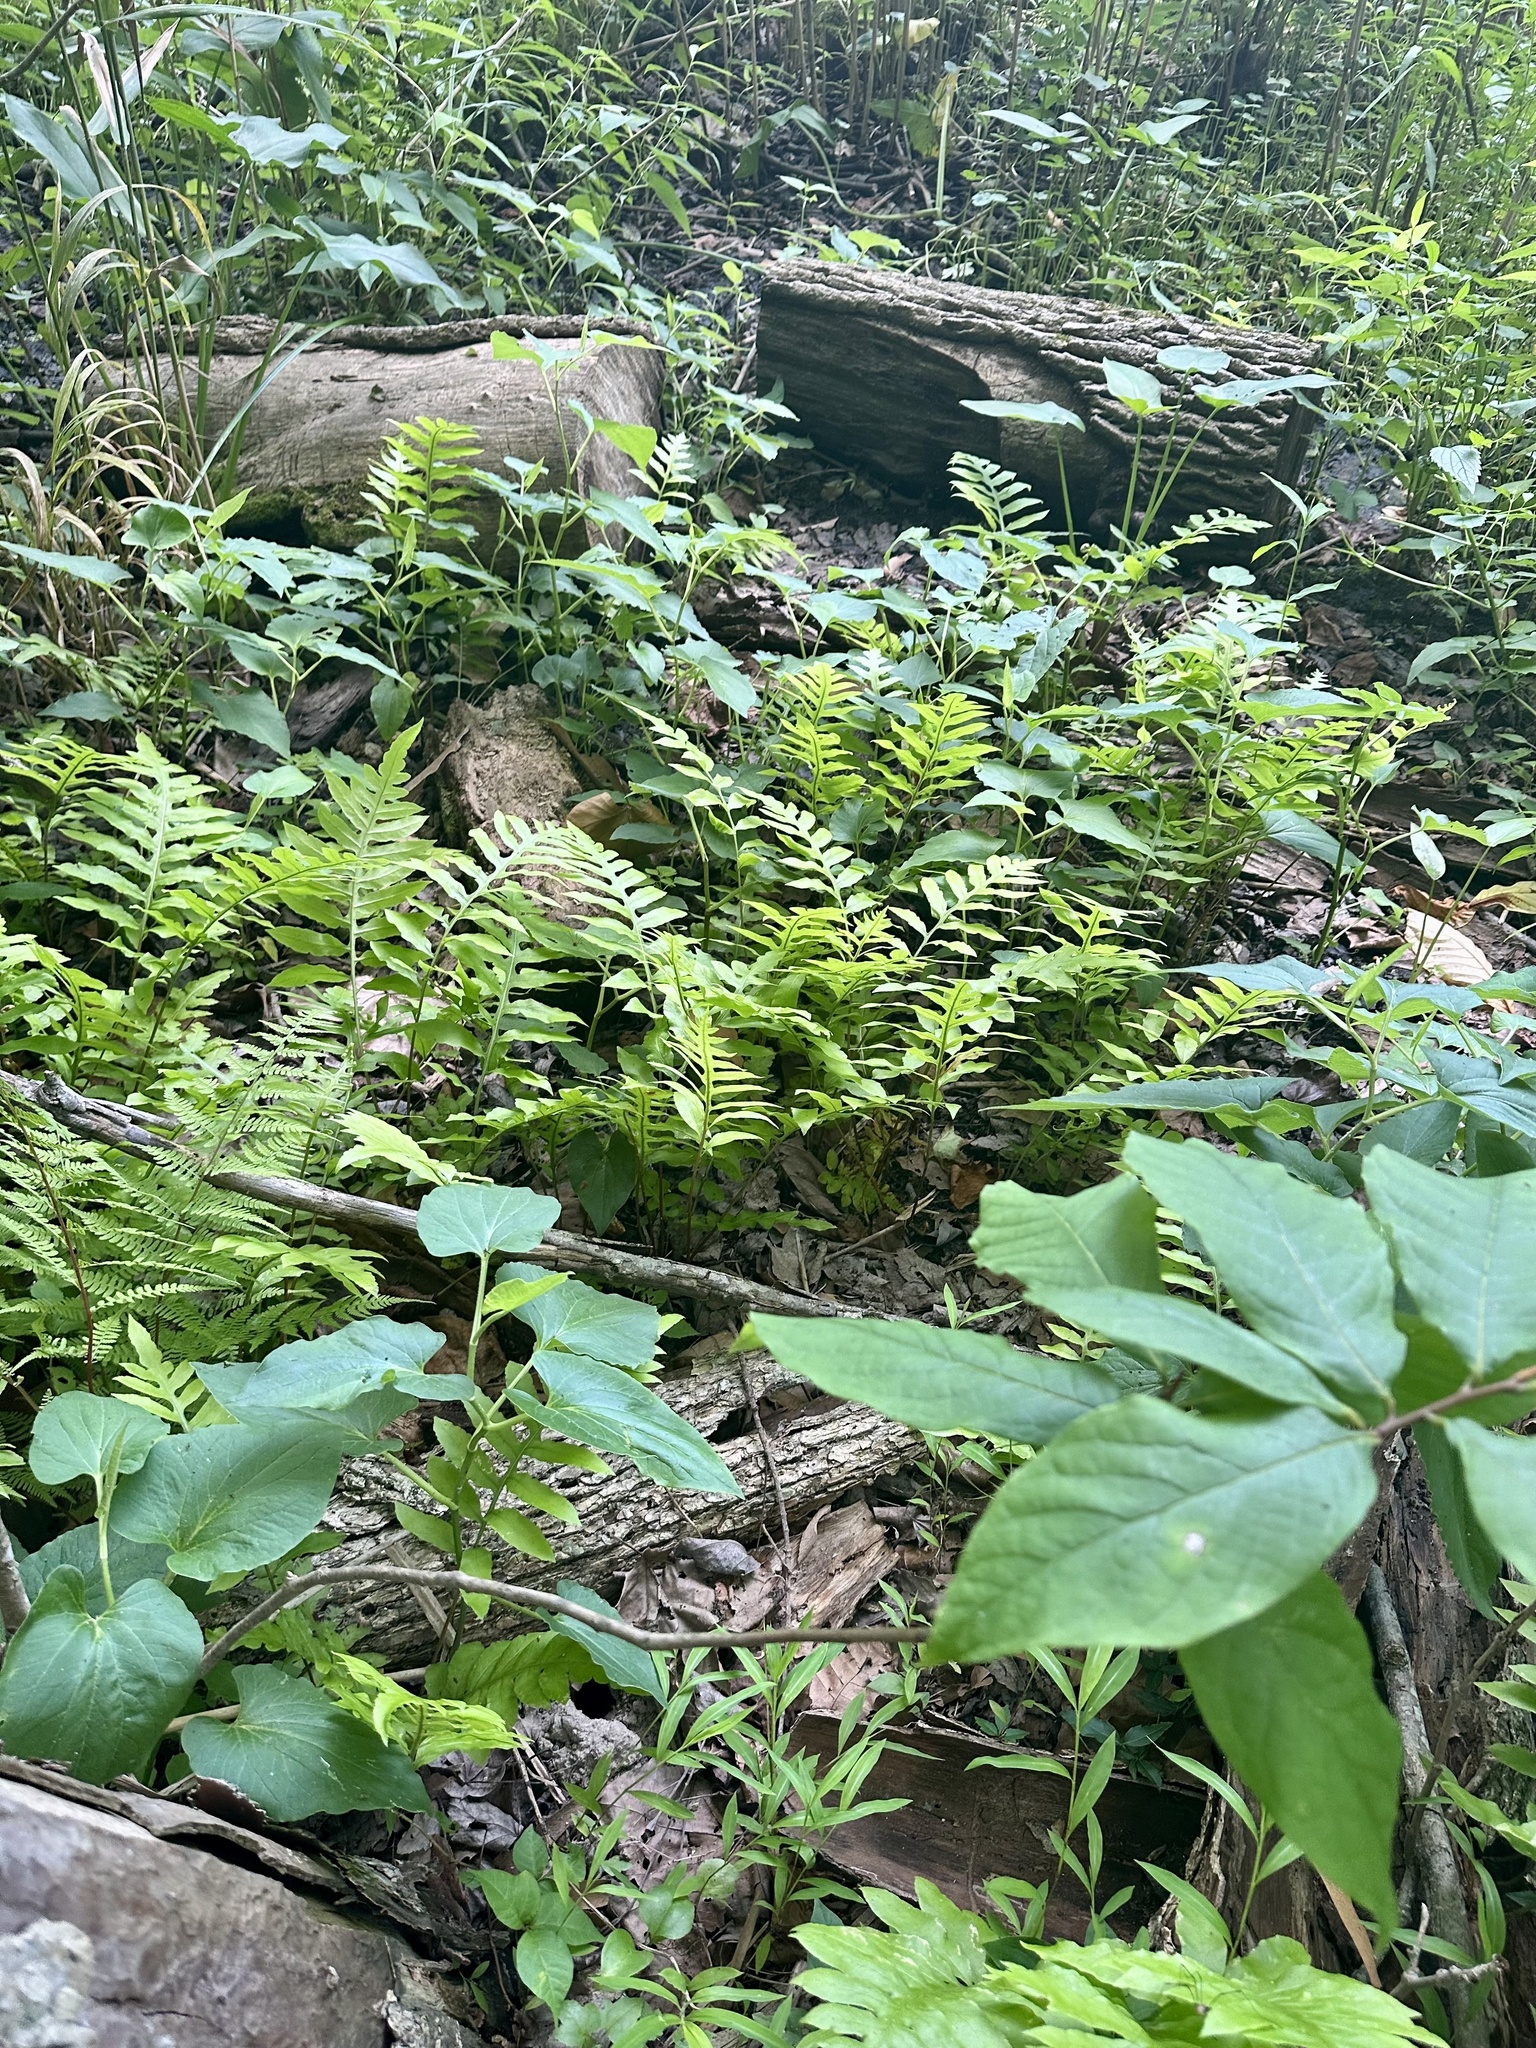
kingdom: Plantae
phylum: Tracheophyta
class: Polypodiopsida
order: Polypodiales
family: Blechnaceae
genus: Lorinseria
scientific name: Lorinseria areolata
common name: Dwarf chain fern
